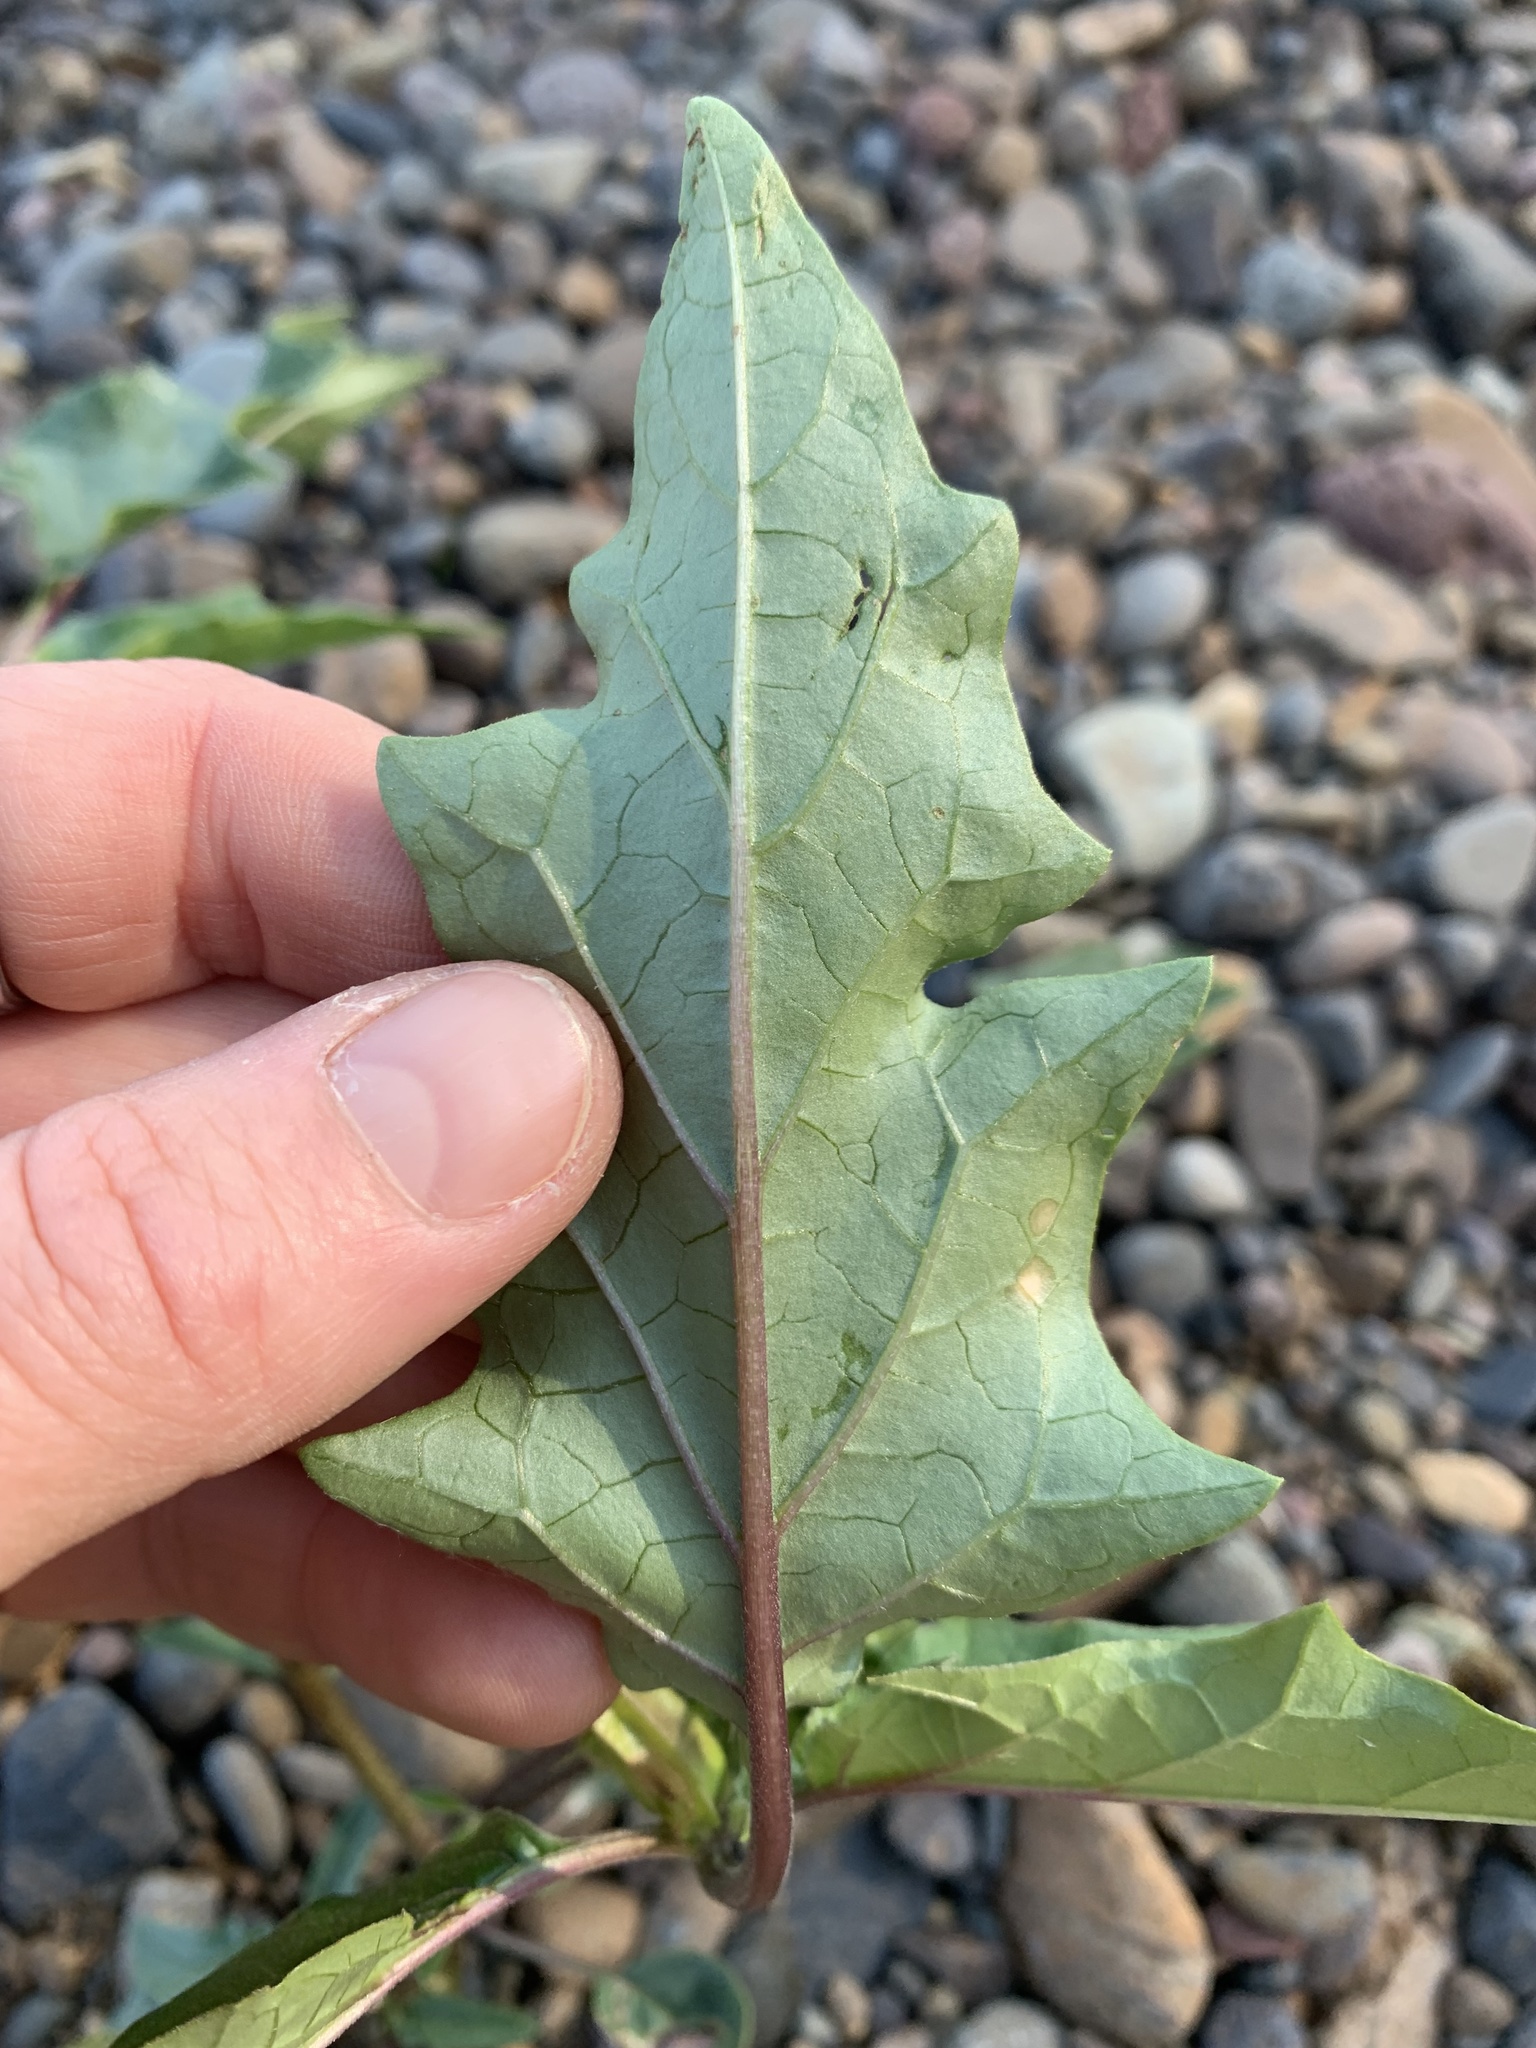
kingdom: Plantae
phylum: Tracheophyta
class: Magnoliopsida
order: Solanales
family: Solanaceae
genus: Datura
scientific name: Datura stramonium
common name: Thorn-apple
